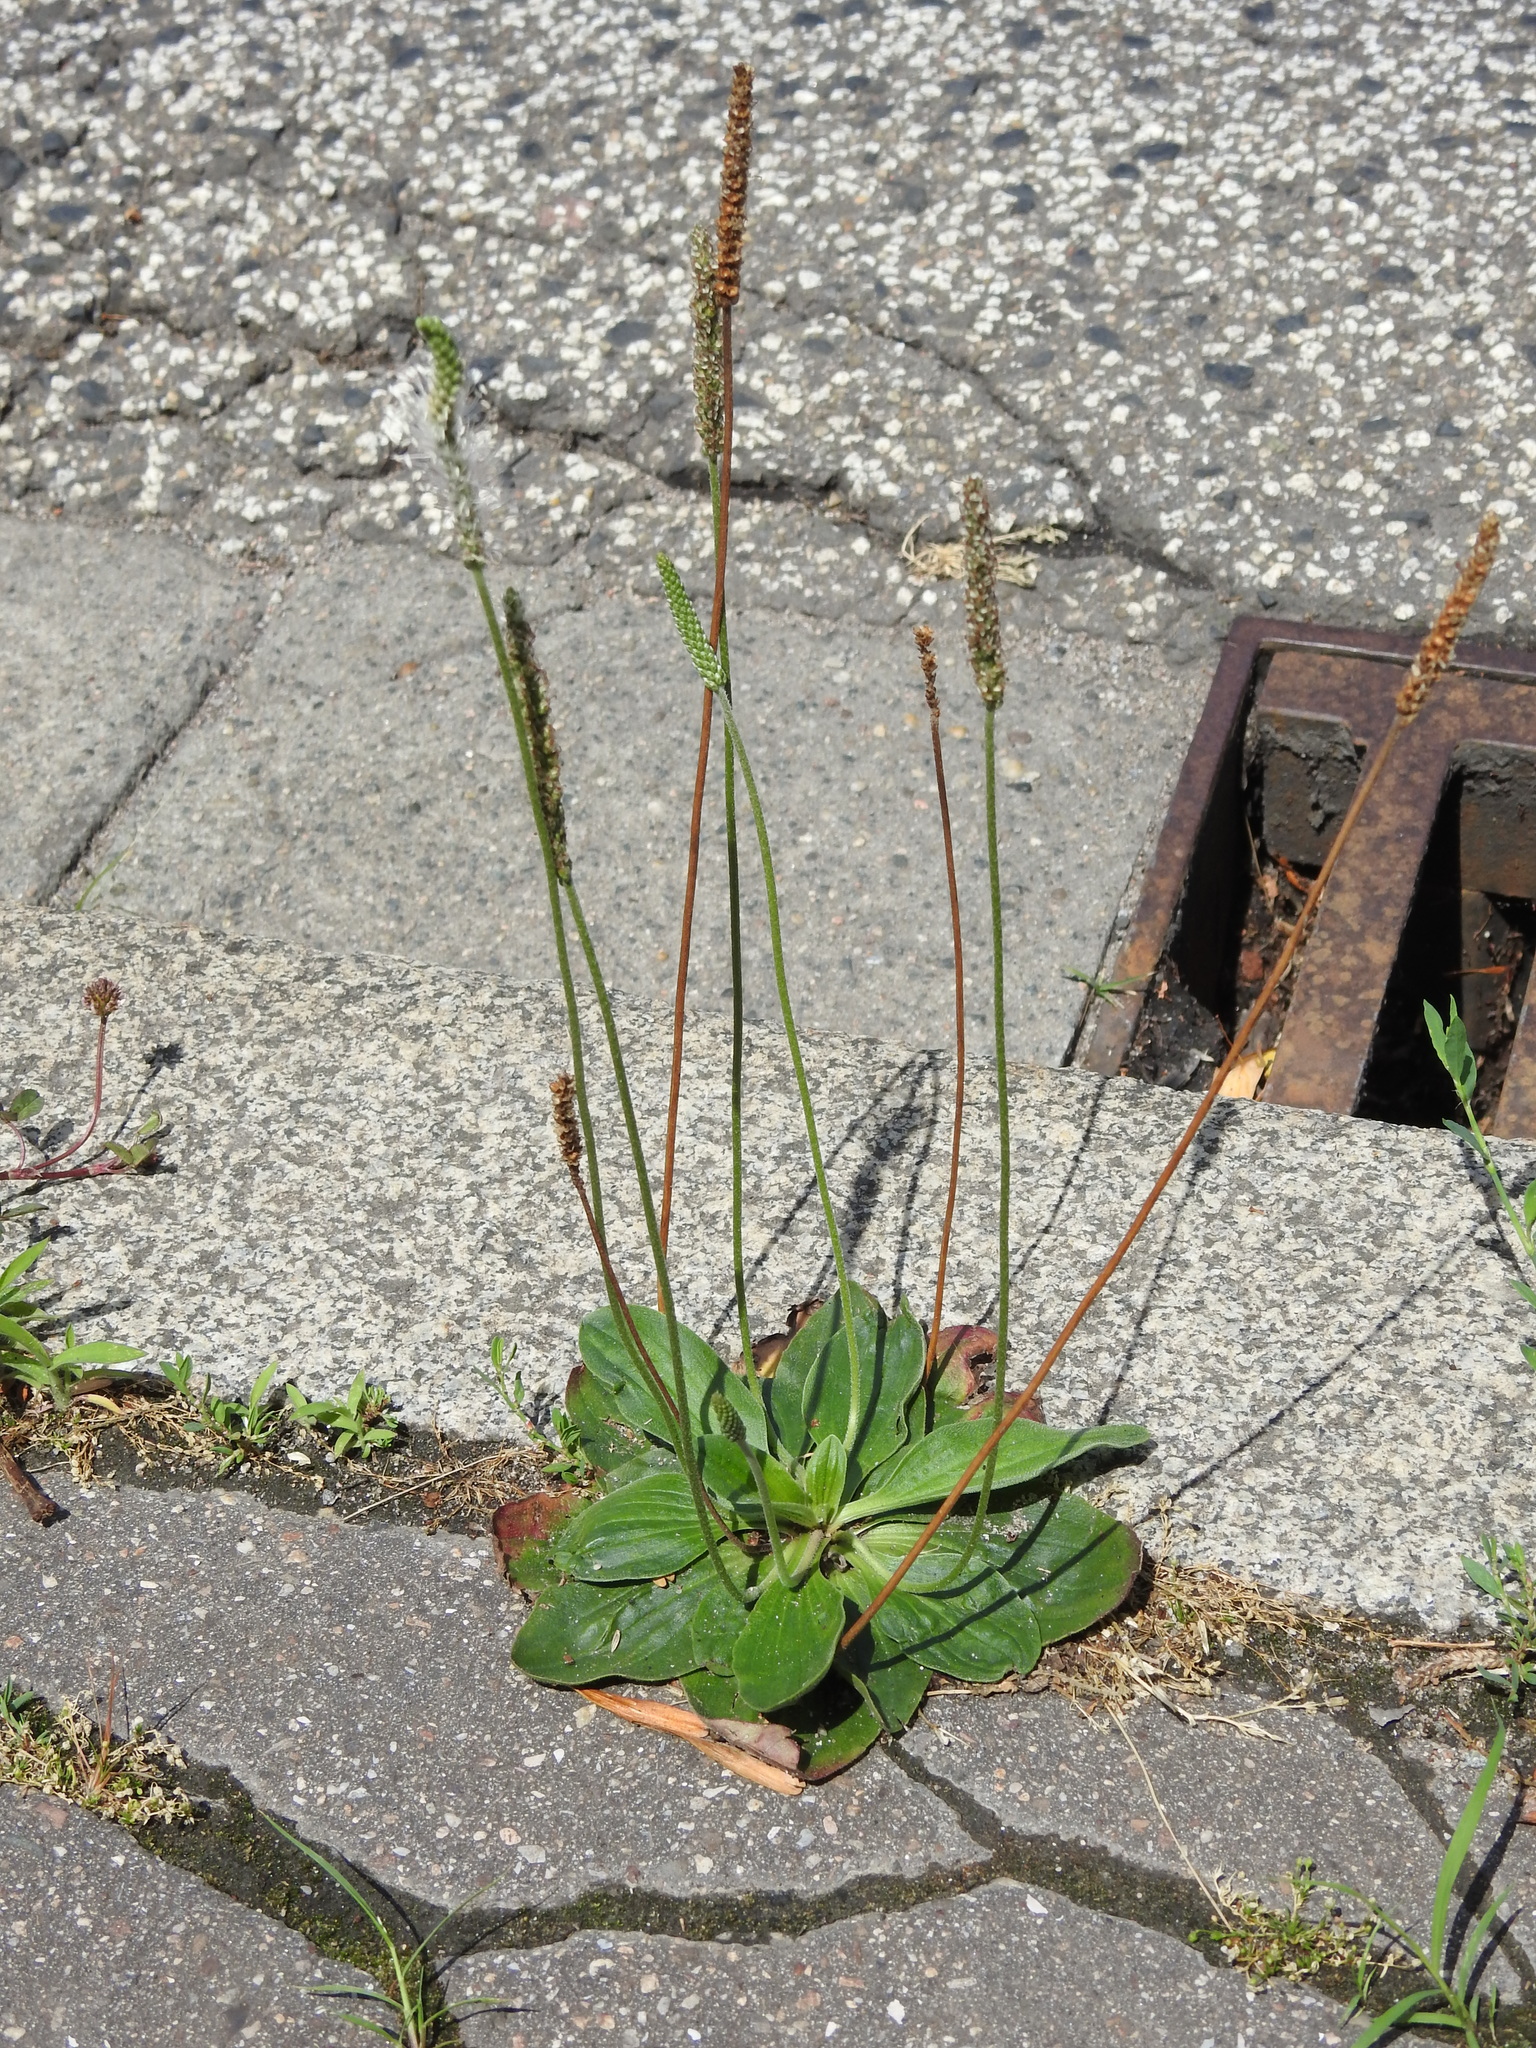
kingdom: Plantae
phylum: Tracheophyta
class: Magnoliopsida
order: Lamiales
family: Plantaginaceae
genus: Plantago
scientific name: Plantago media
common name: Hoary plantain
